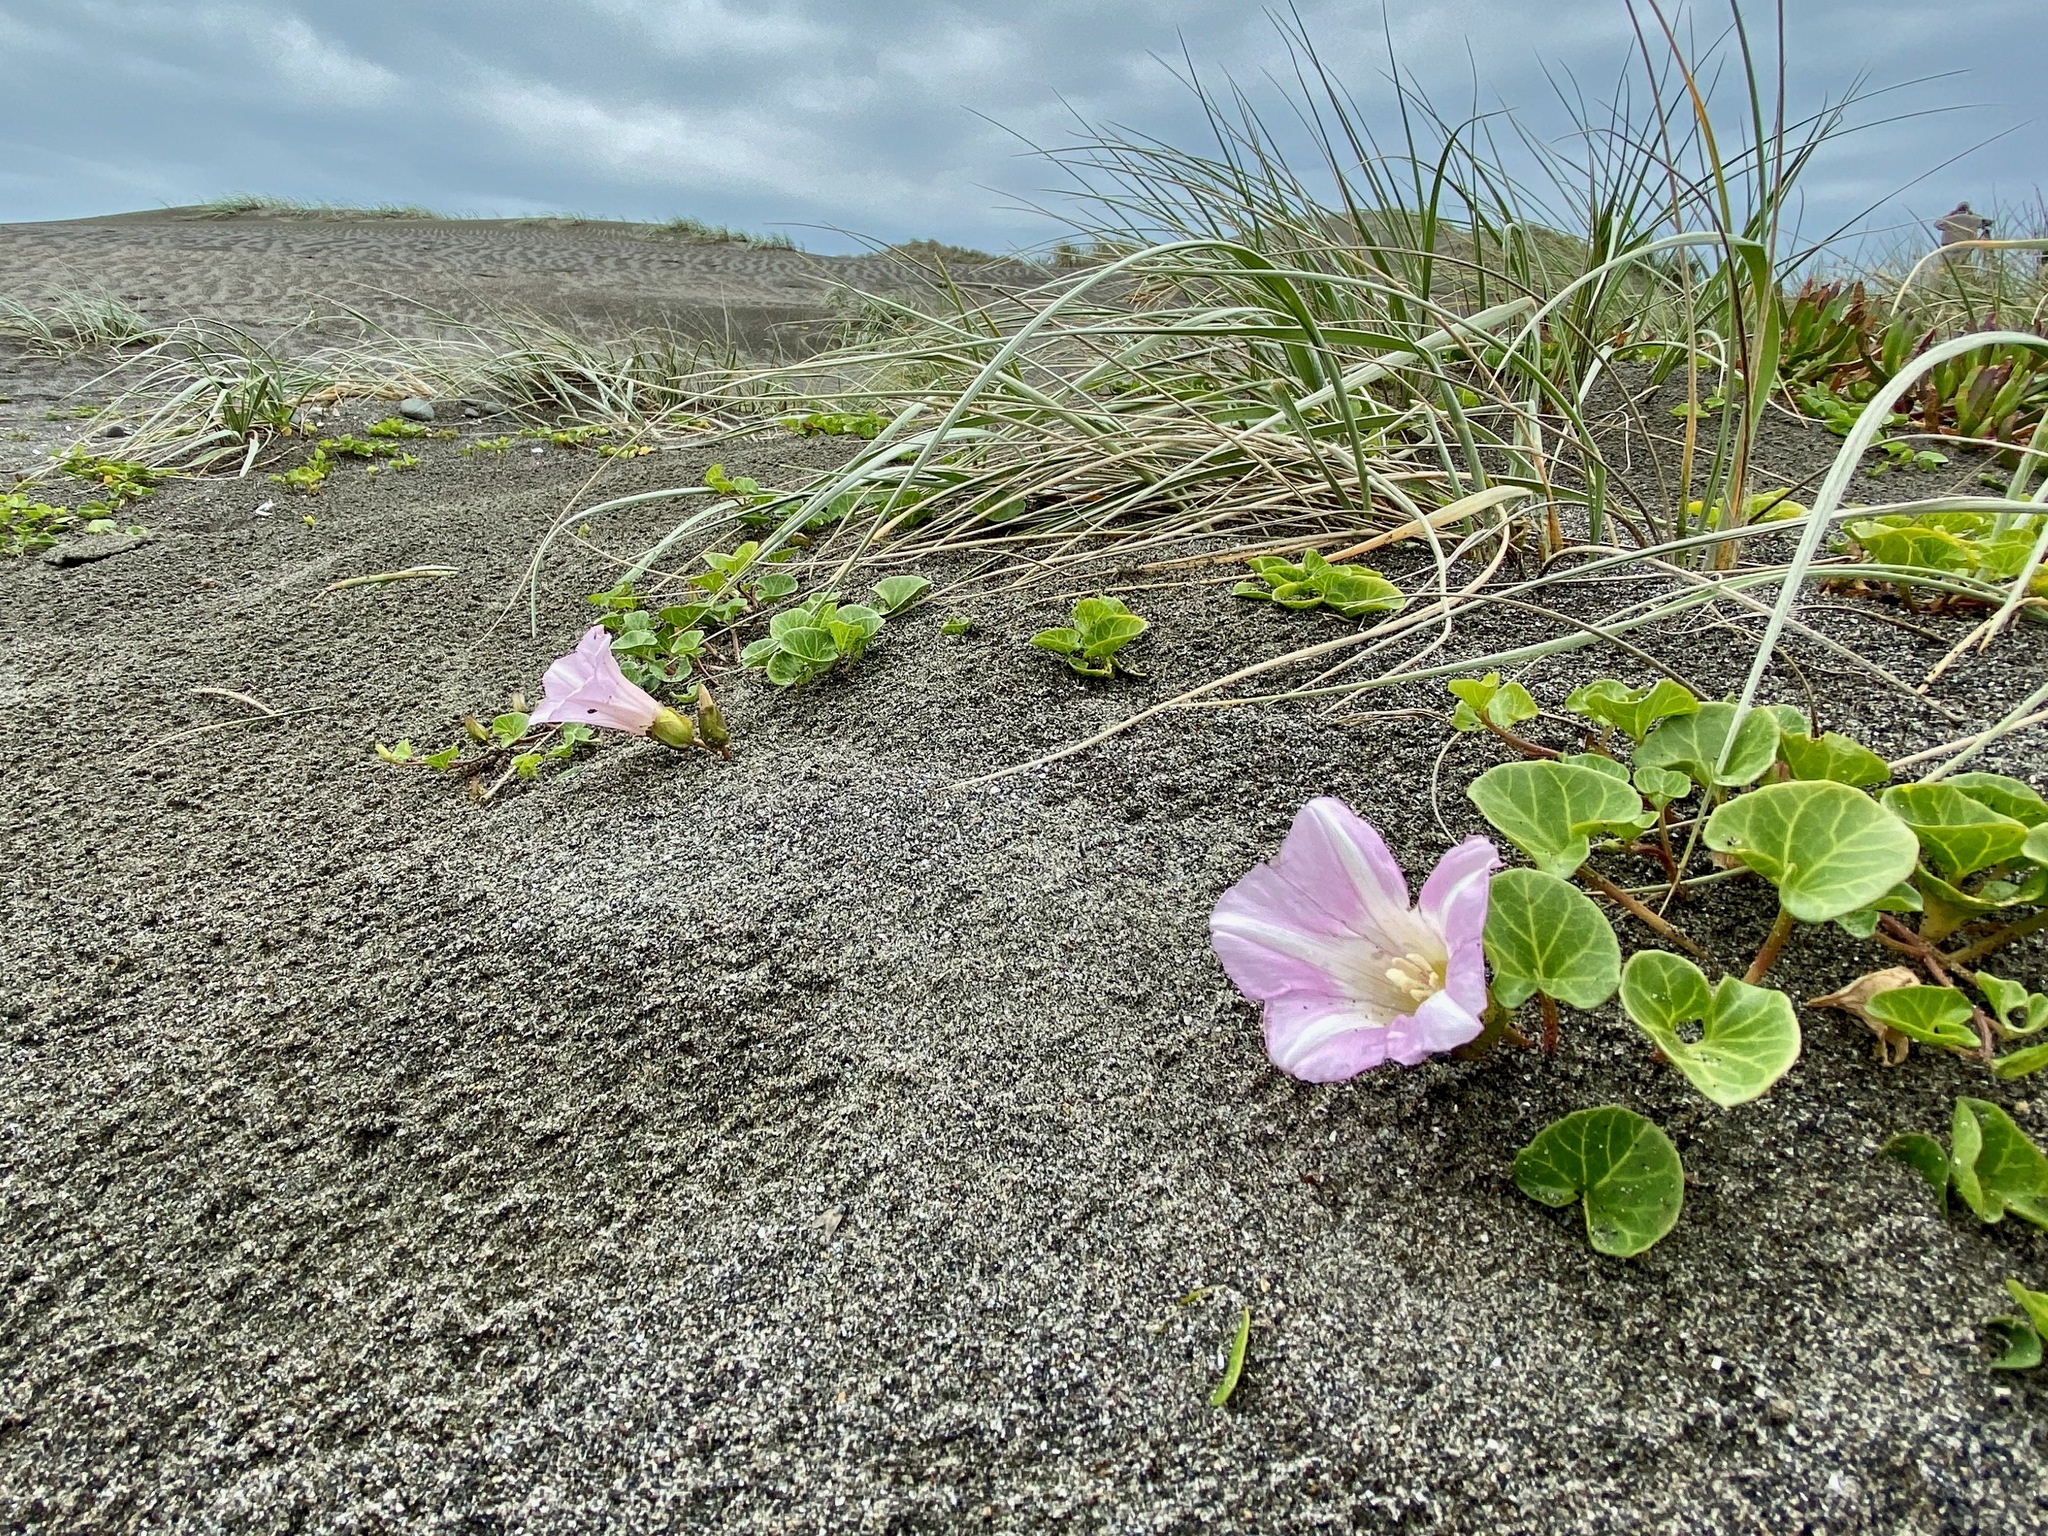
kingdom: Plantae
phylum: Tracheophyta
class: Magnoliopsida
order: Solanales
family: Convolvulaceae
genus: Calystegia
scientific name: Calystegia soldanella
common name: Sea bindweed
